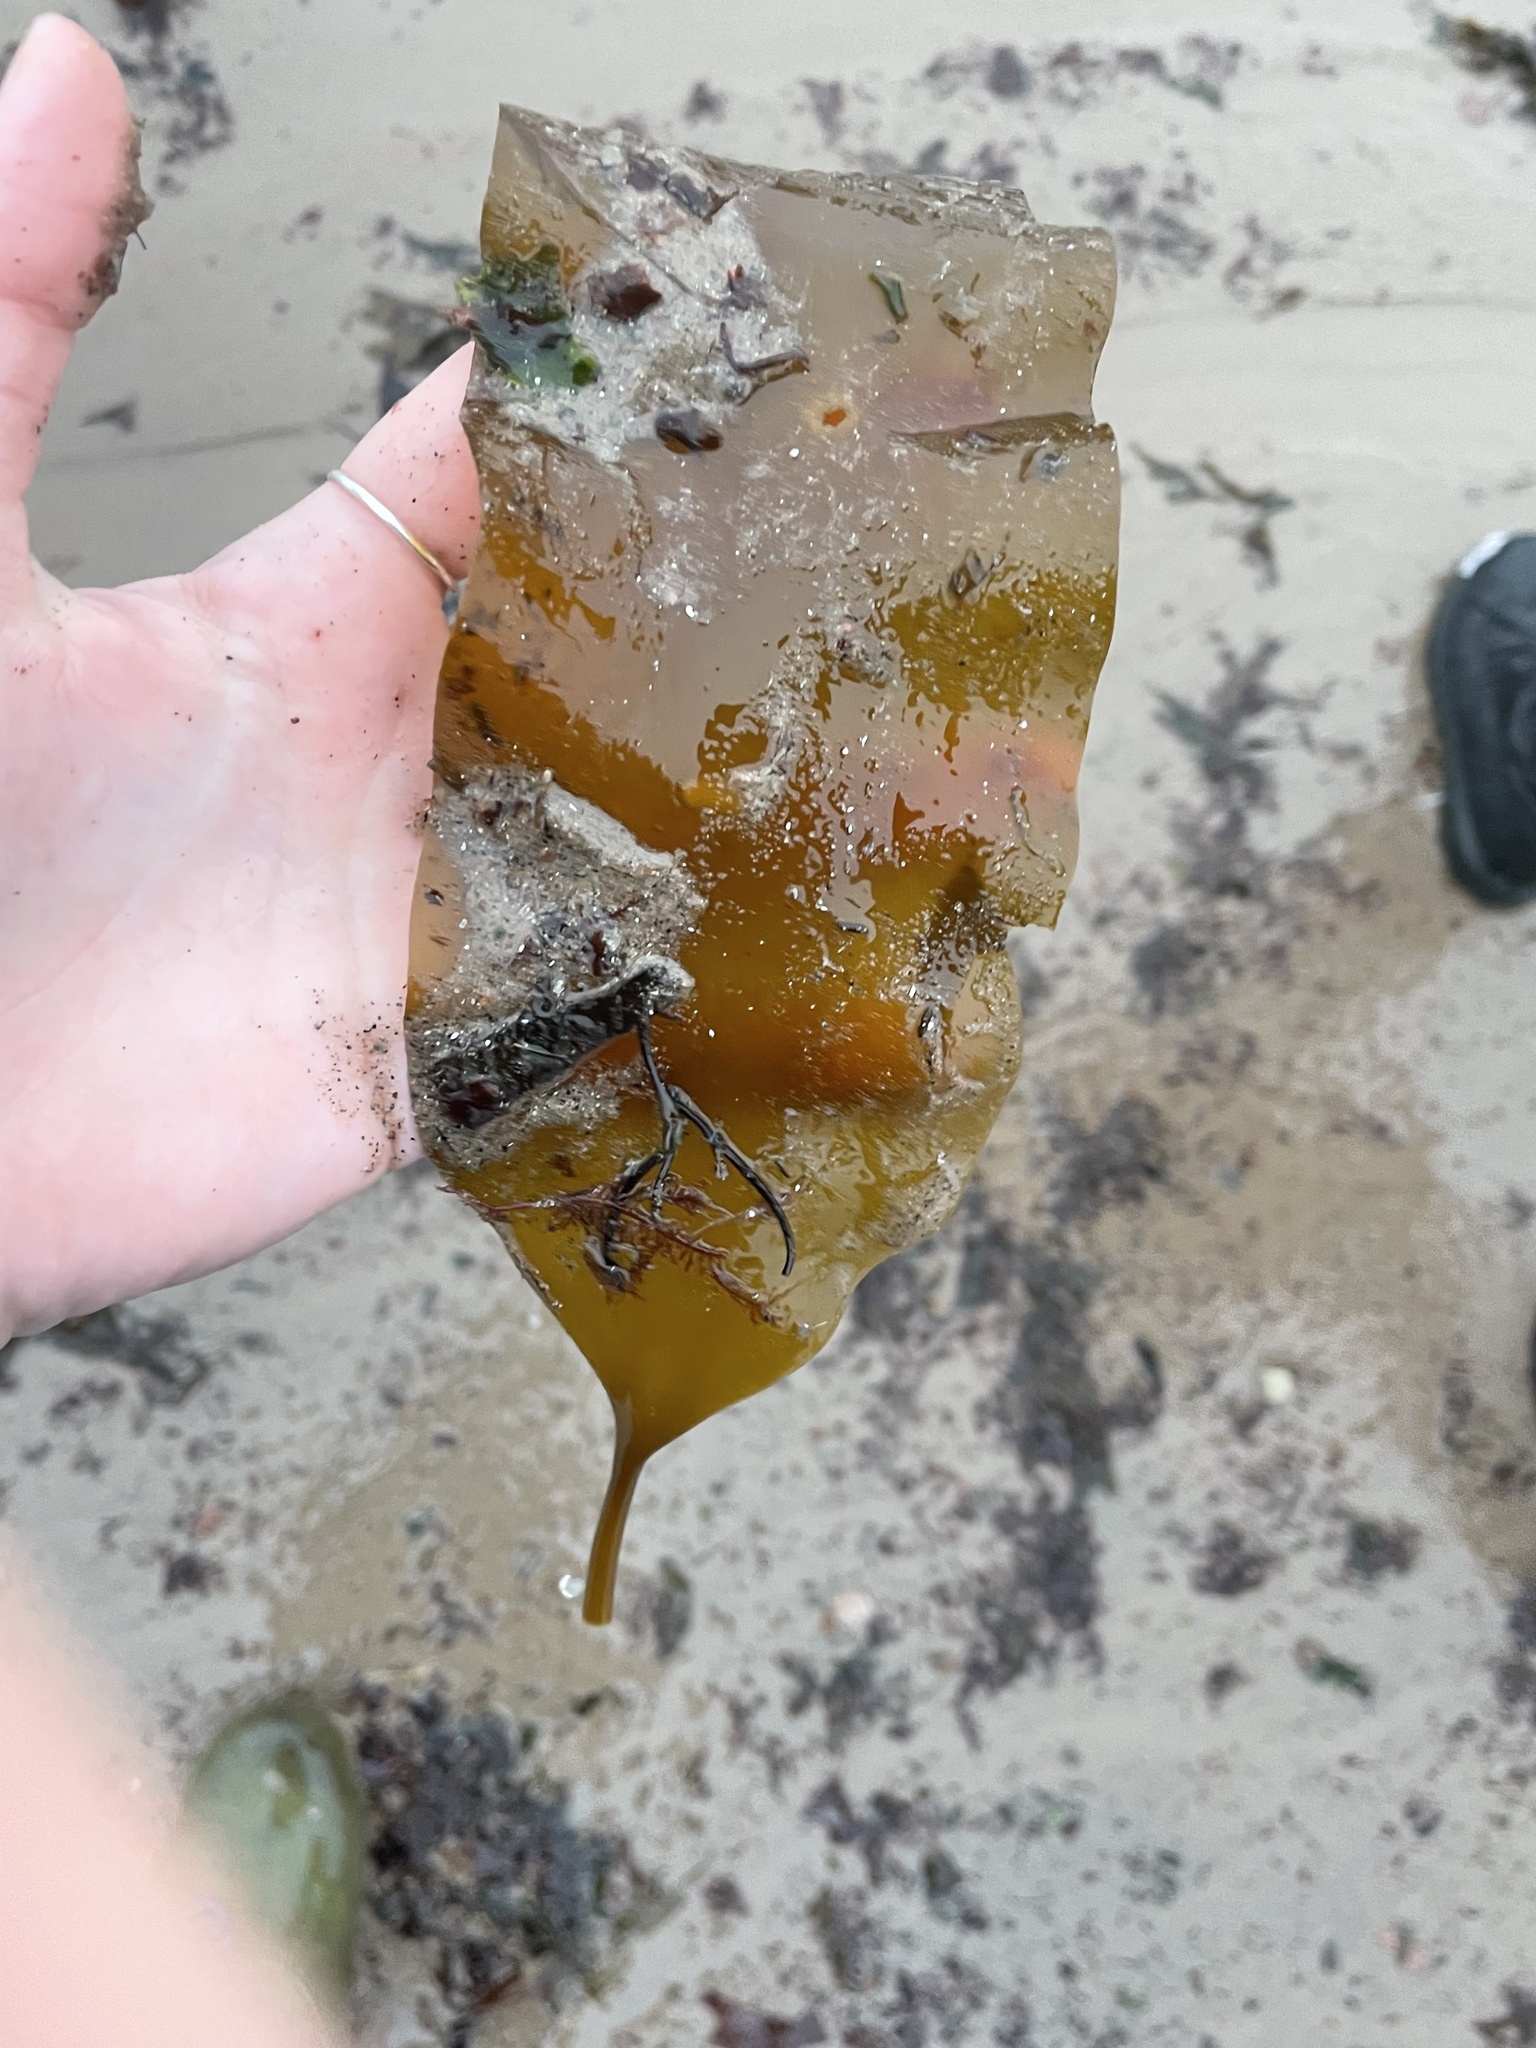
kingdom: Chromista
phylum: Ochrophyta
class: Phaeophyceae
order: Laminariales
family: Laminariaceae
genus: Saccharina
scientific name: Saccharina latissima
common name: Poor man's weather glass
